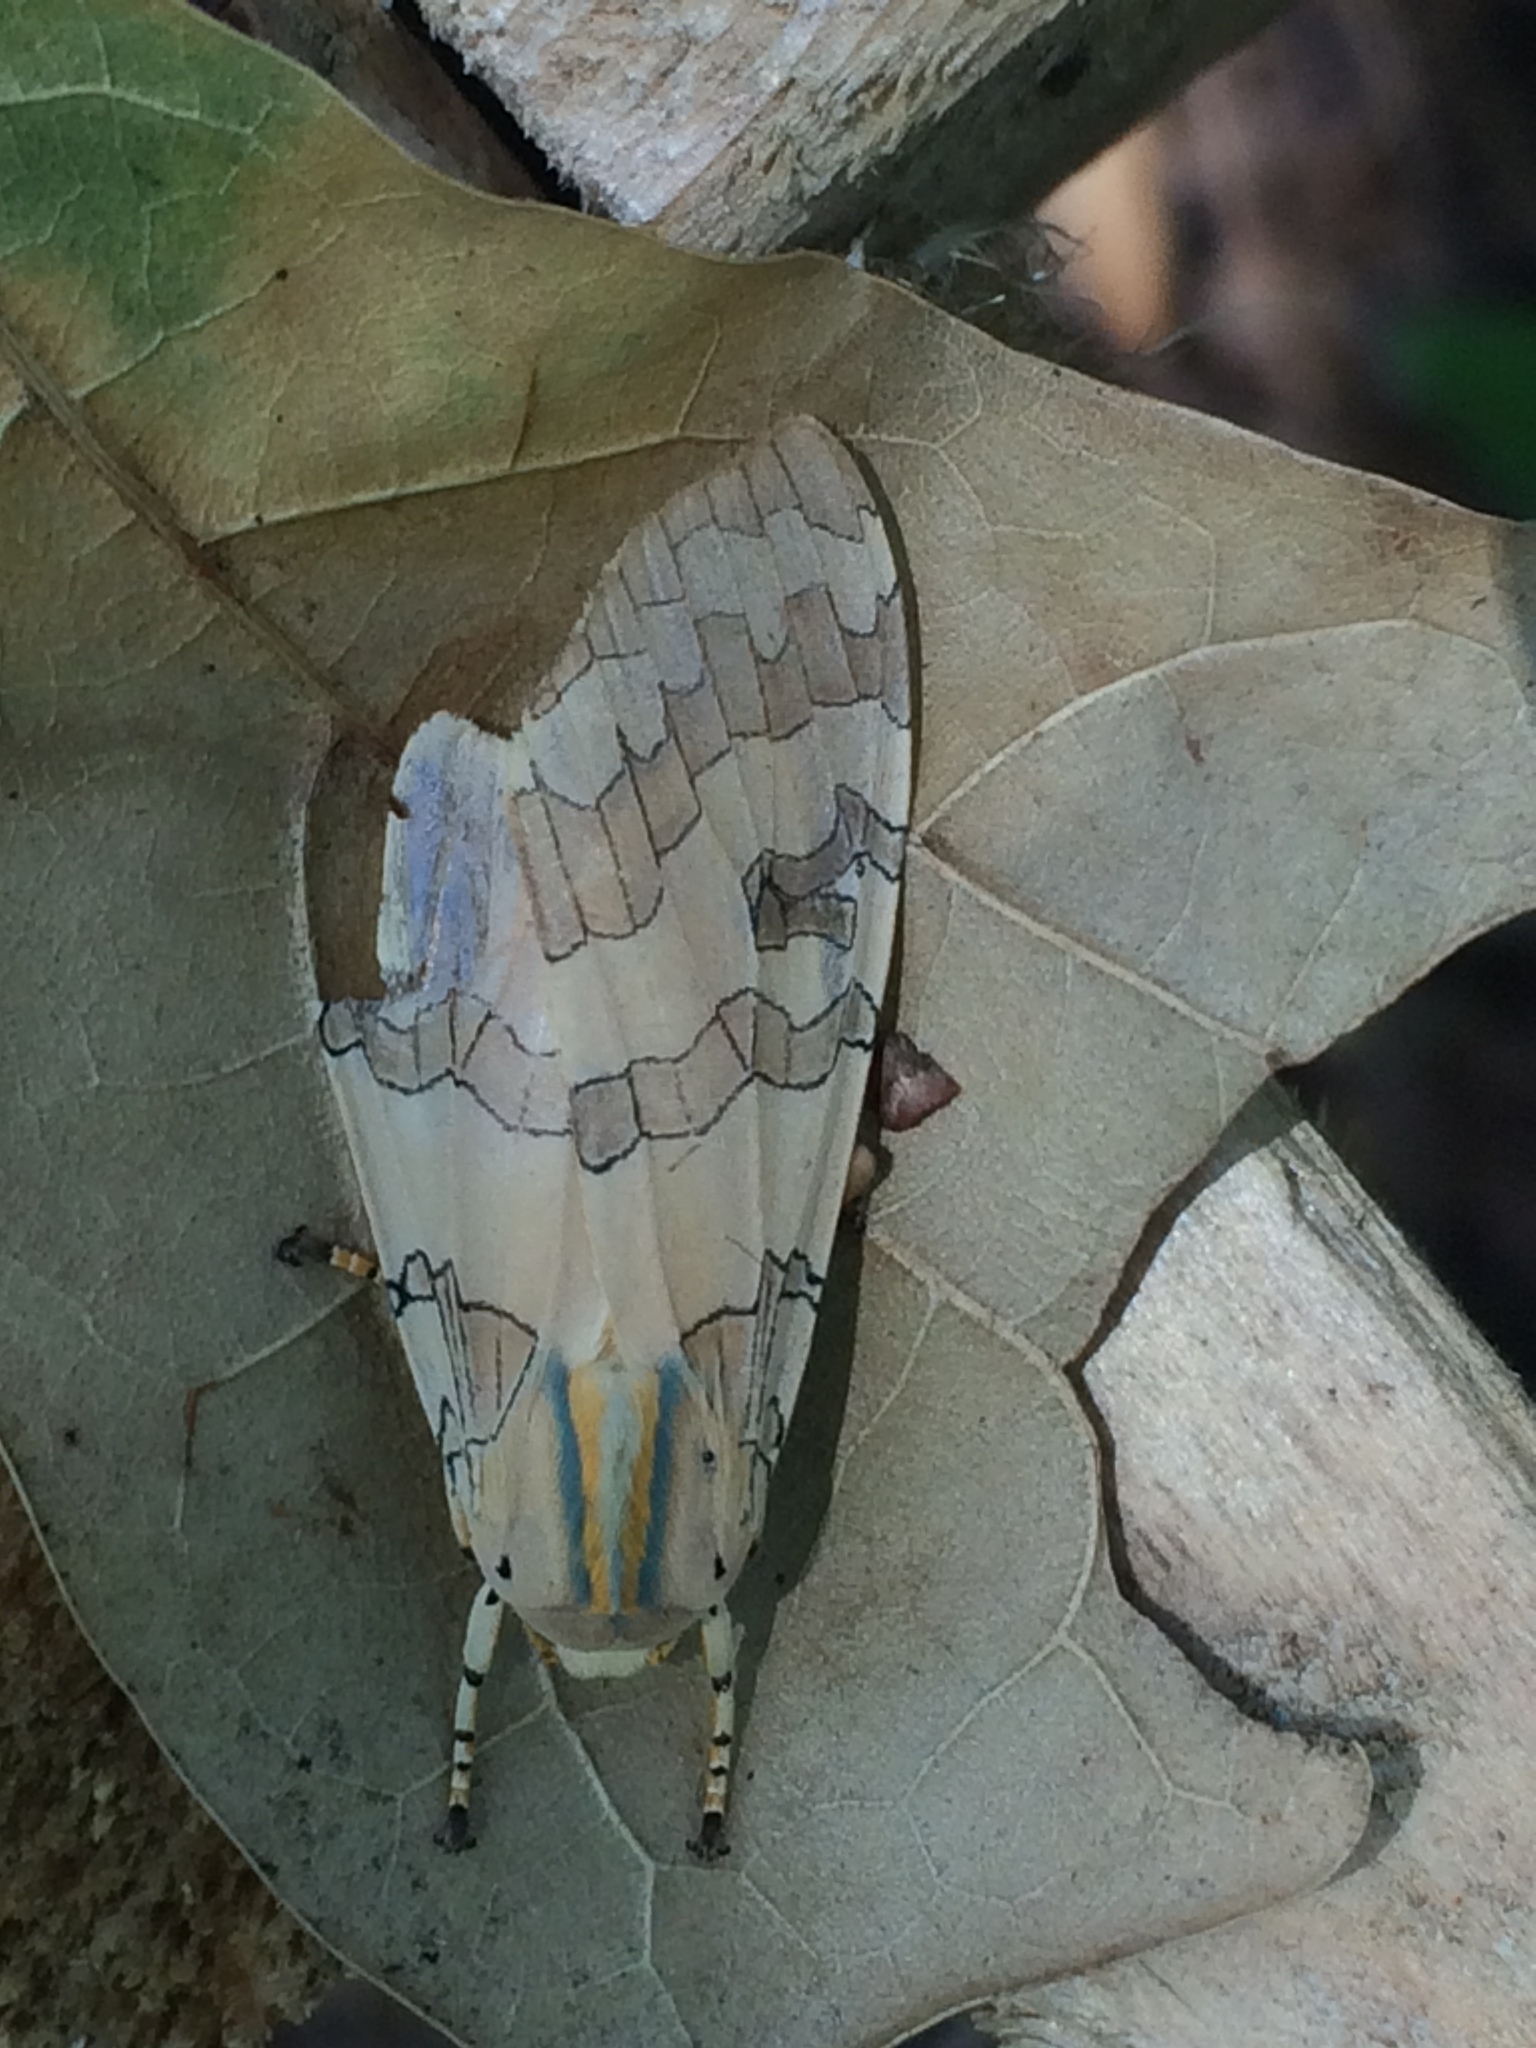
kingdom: Animalia
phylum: Arthropoda
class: Insecta
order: Lepidoptera
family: Erebidae
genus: Halysidota
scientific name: Halysidota
